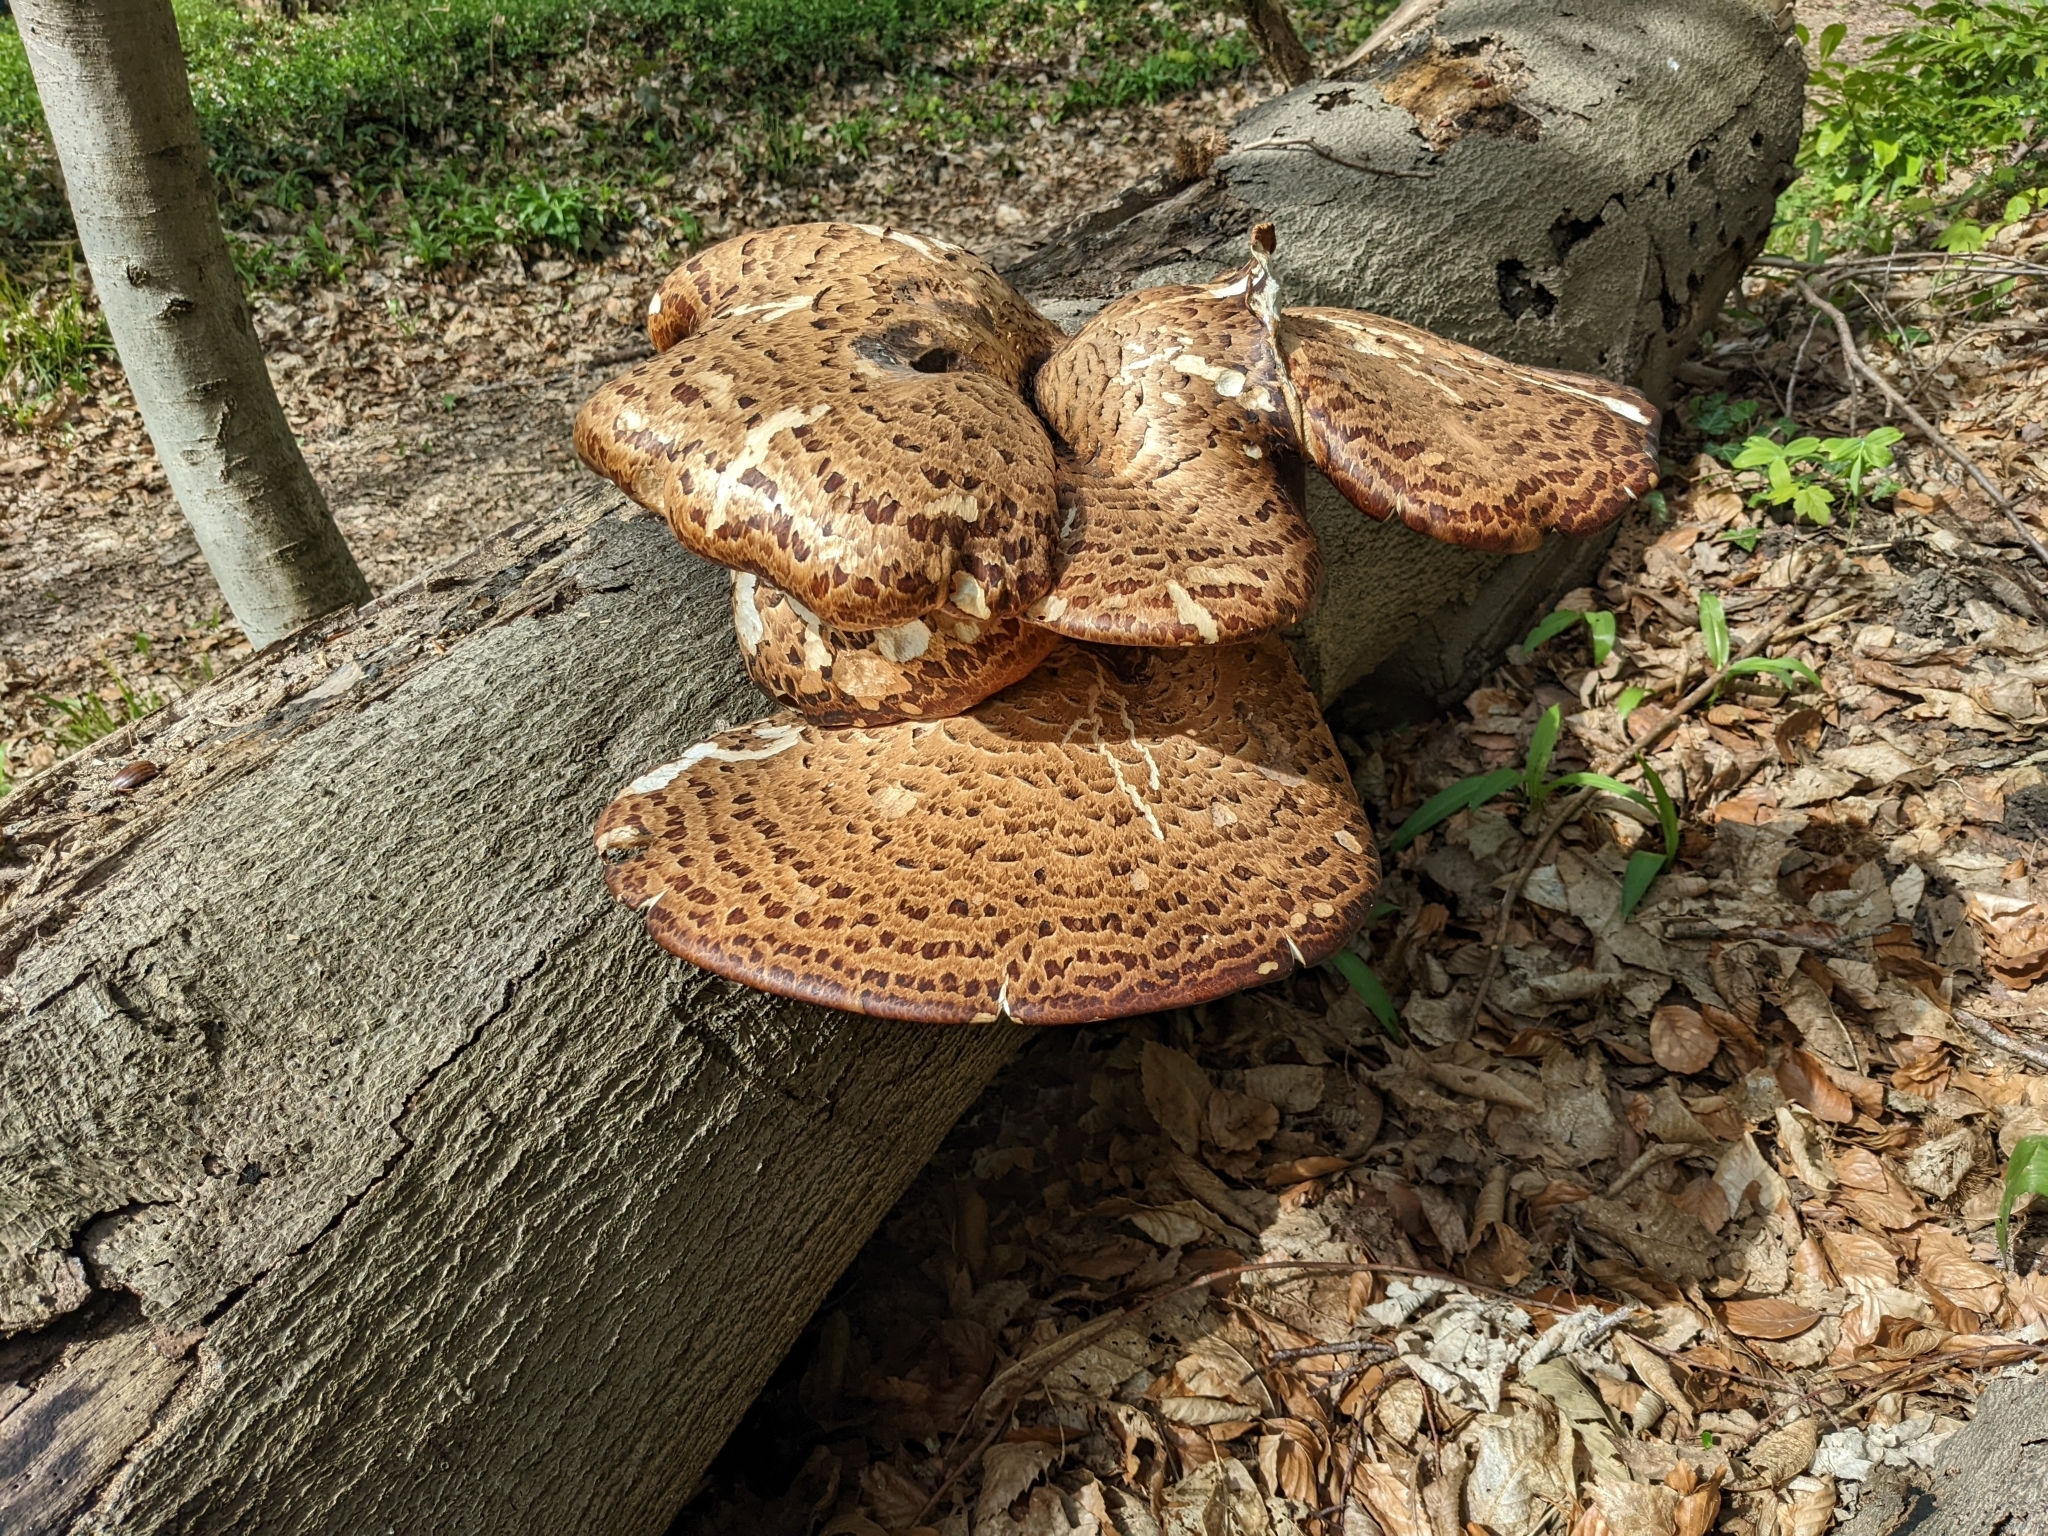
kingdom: Fungi
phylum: Basidiomycota
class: Agaricomycetes
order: Polyporales
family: Polyporaceae
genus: Cerioporus
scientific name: Cerioporus squamosus
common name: Dryad's saddle
